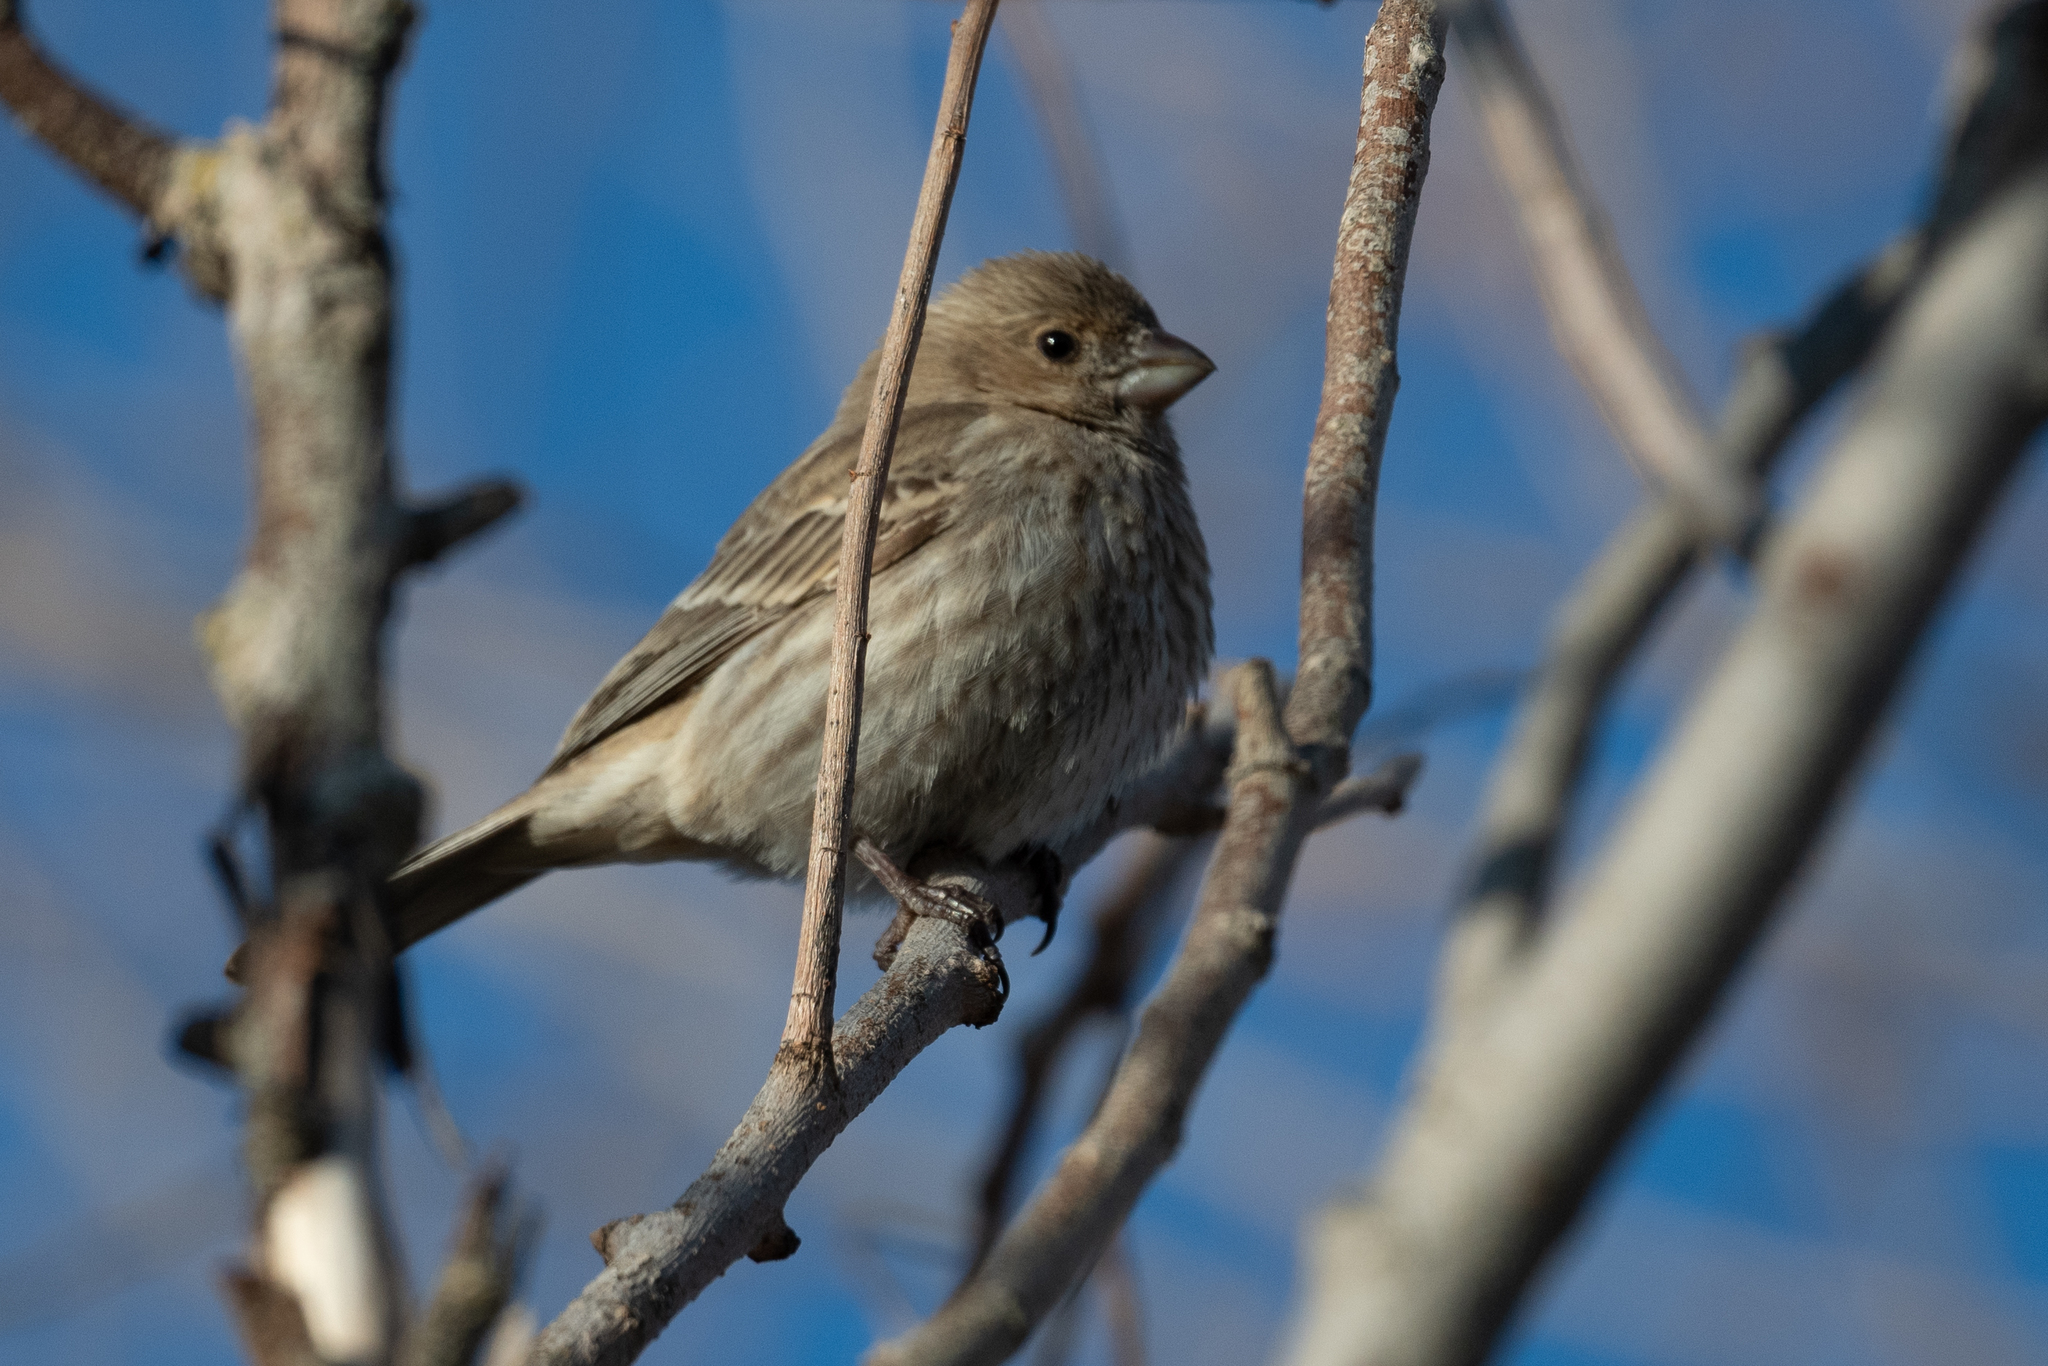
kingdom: Animalia
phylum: Chordata
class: Aves
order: Passeriformes
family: Fringillidae
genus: Haemorhous
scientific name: Haemorhous mexicanus
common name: House finch
